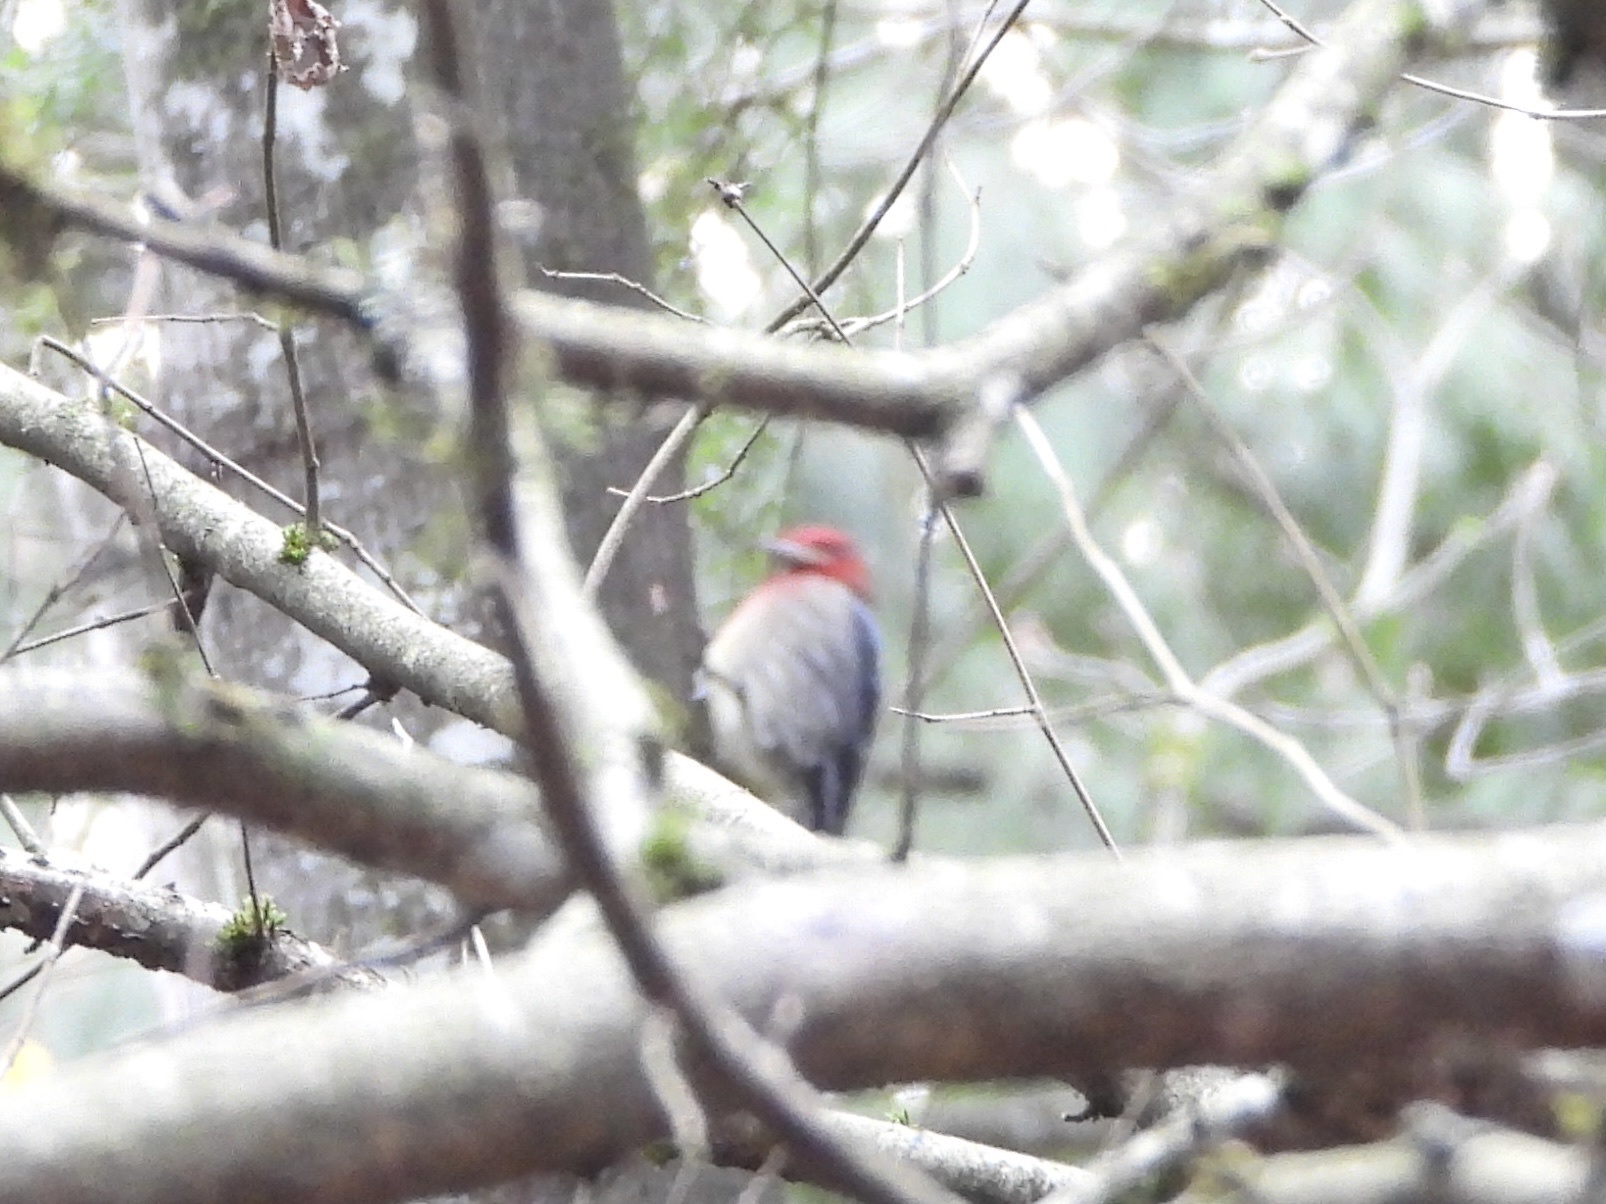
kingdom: Animalia
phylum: Chordata
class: Aves
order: Piciformes
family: Picidae
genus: Sphyrapicus
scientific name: Sphyrapicus ruber
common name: Red-breasted sapsucker
